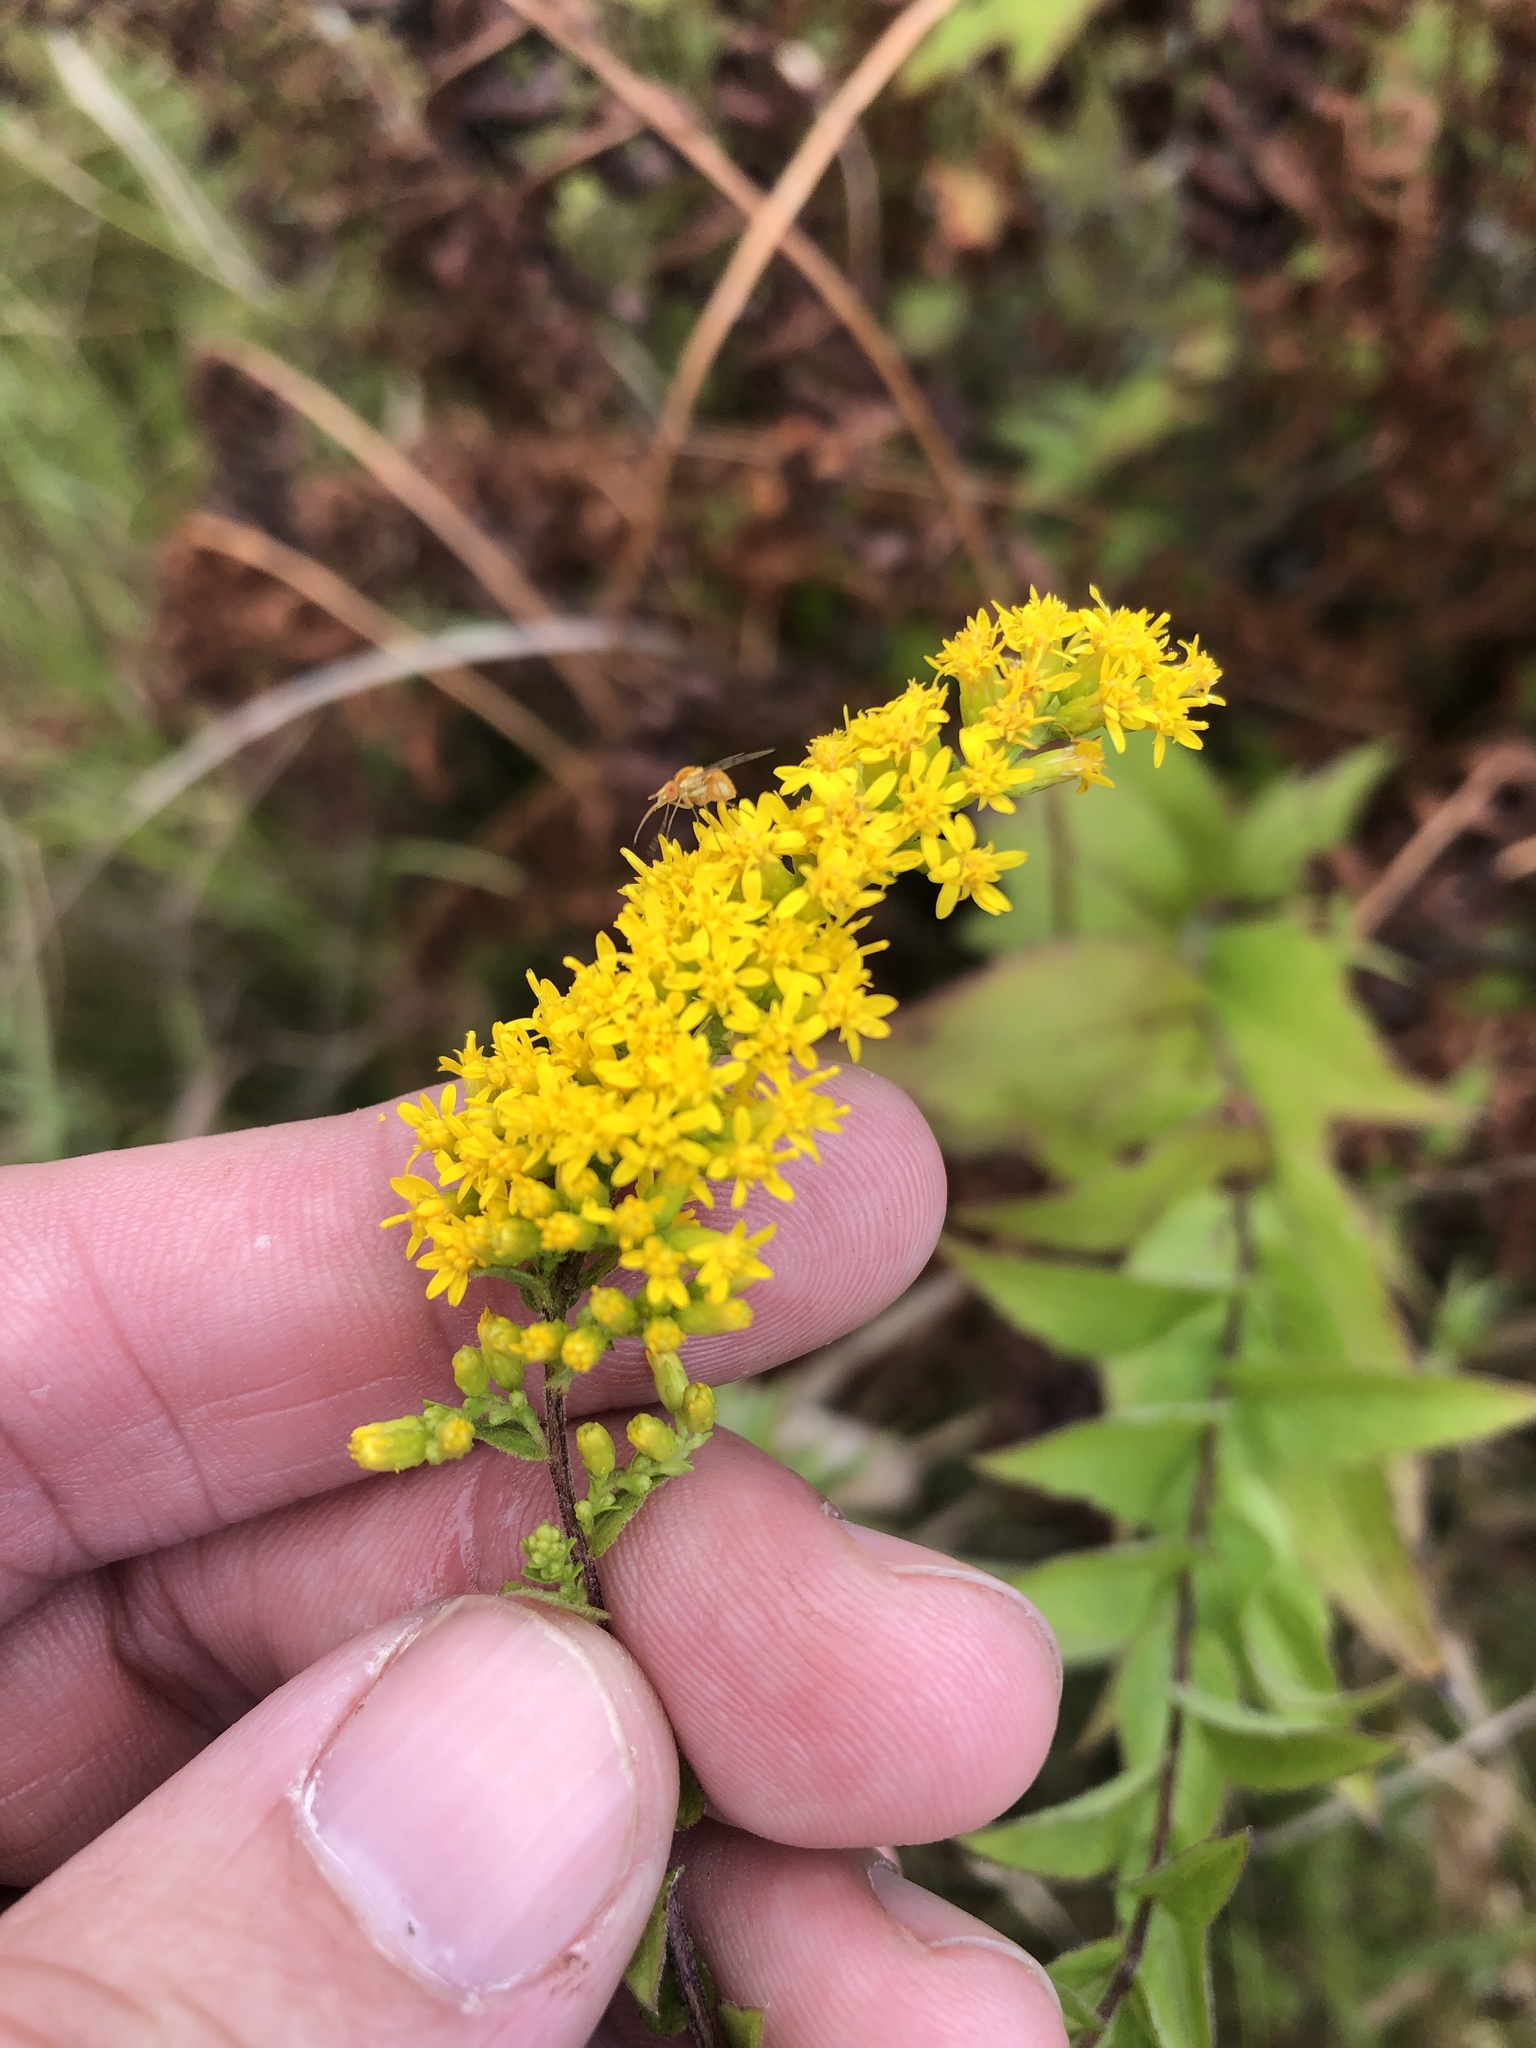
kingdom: Plantae
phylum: Tracheophyta
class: Magnoliopsida
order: Asterales
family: Asteraceae
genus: Solidago
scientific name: Solidago rugosa
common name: Rough-stemmed goldenrod
